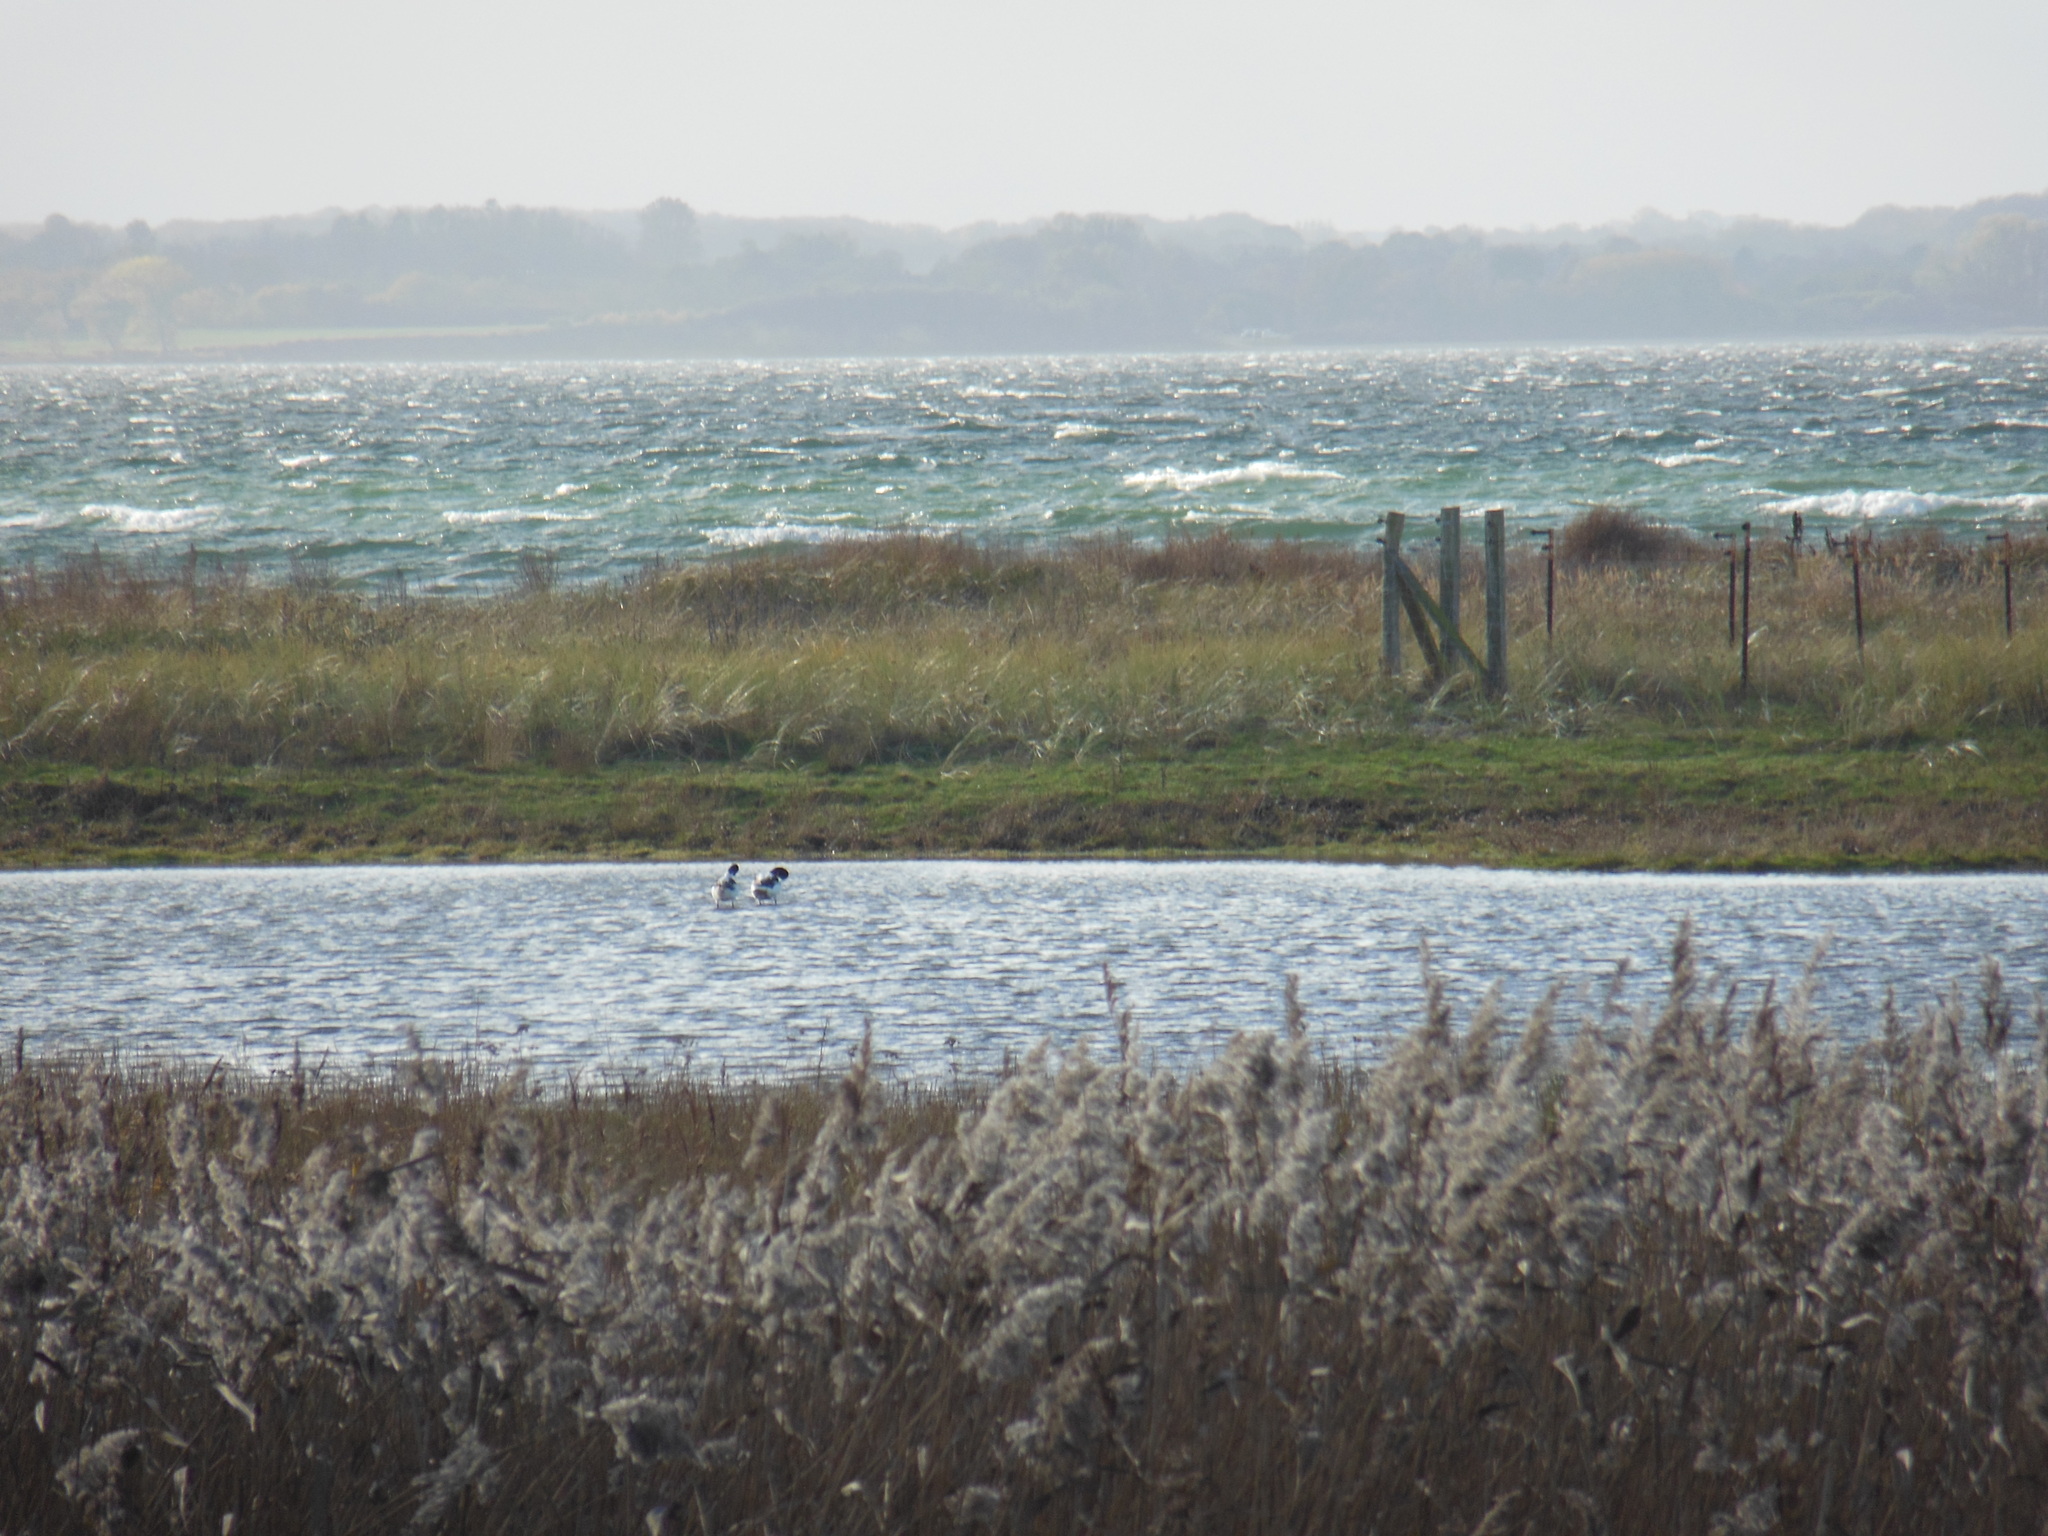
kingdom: Animalia
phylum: Chordata
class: Aves
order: Anseriformes
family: Anatidae
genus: Tadorna
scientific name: Tadorna tadorna
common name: Common shelduck
